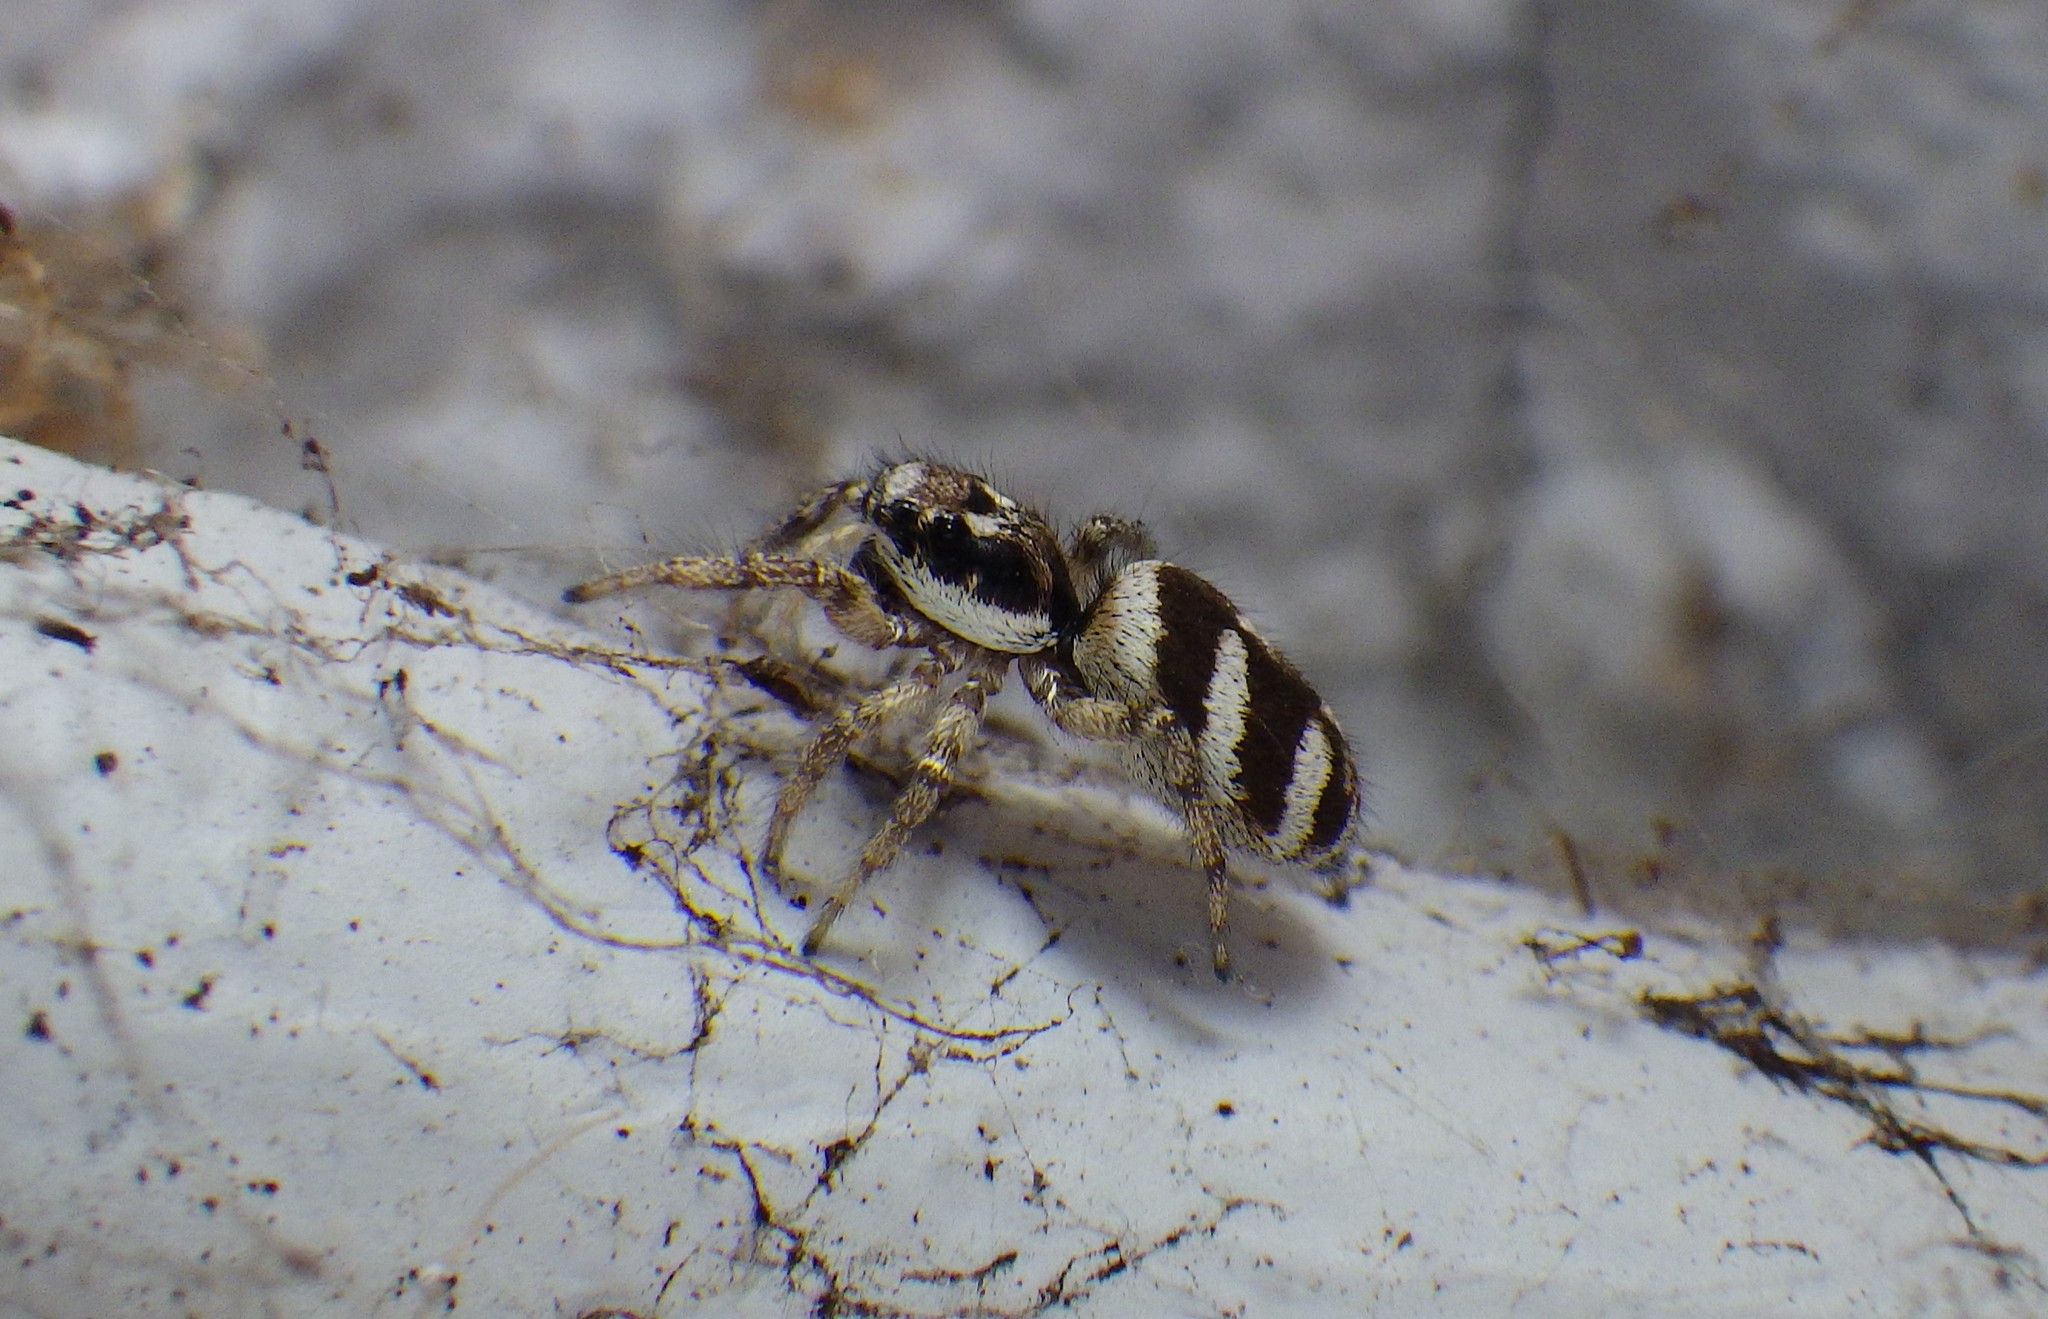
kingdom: Animalia
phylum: Arthropoda
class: Arachnida
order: Araneae
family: Salticidae
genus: Salticus
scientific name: Salticus scenicus
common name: Zebra jumper
